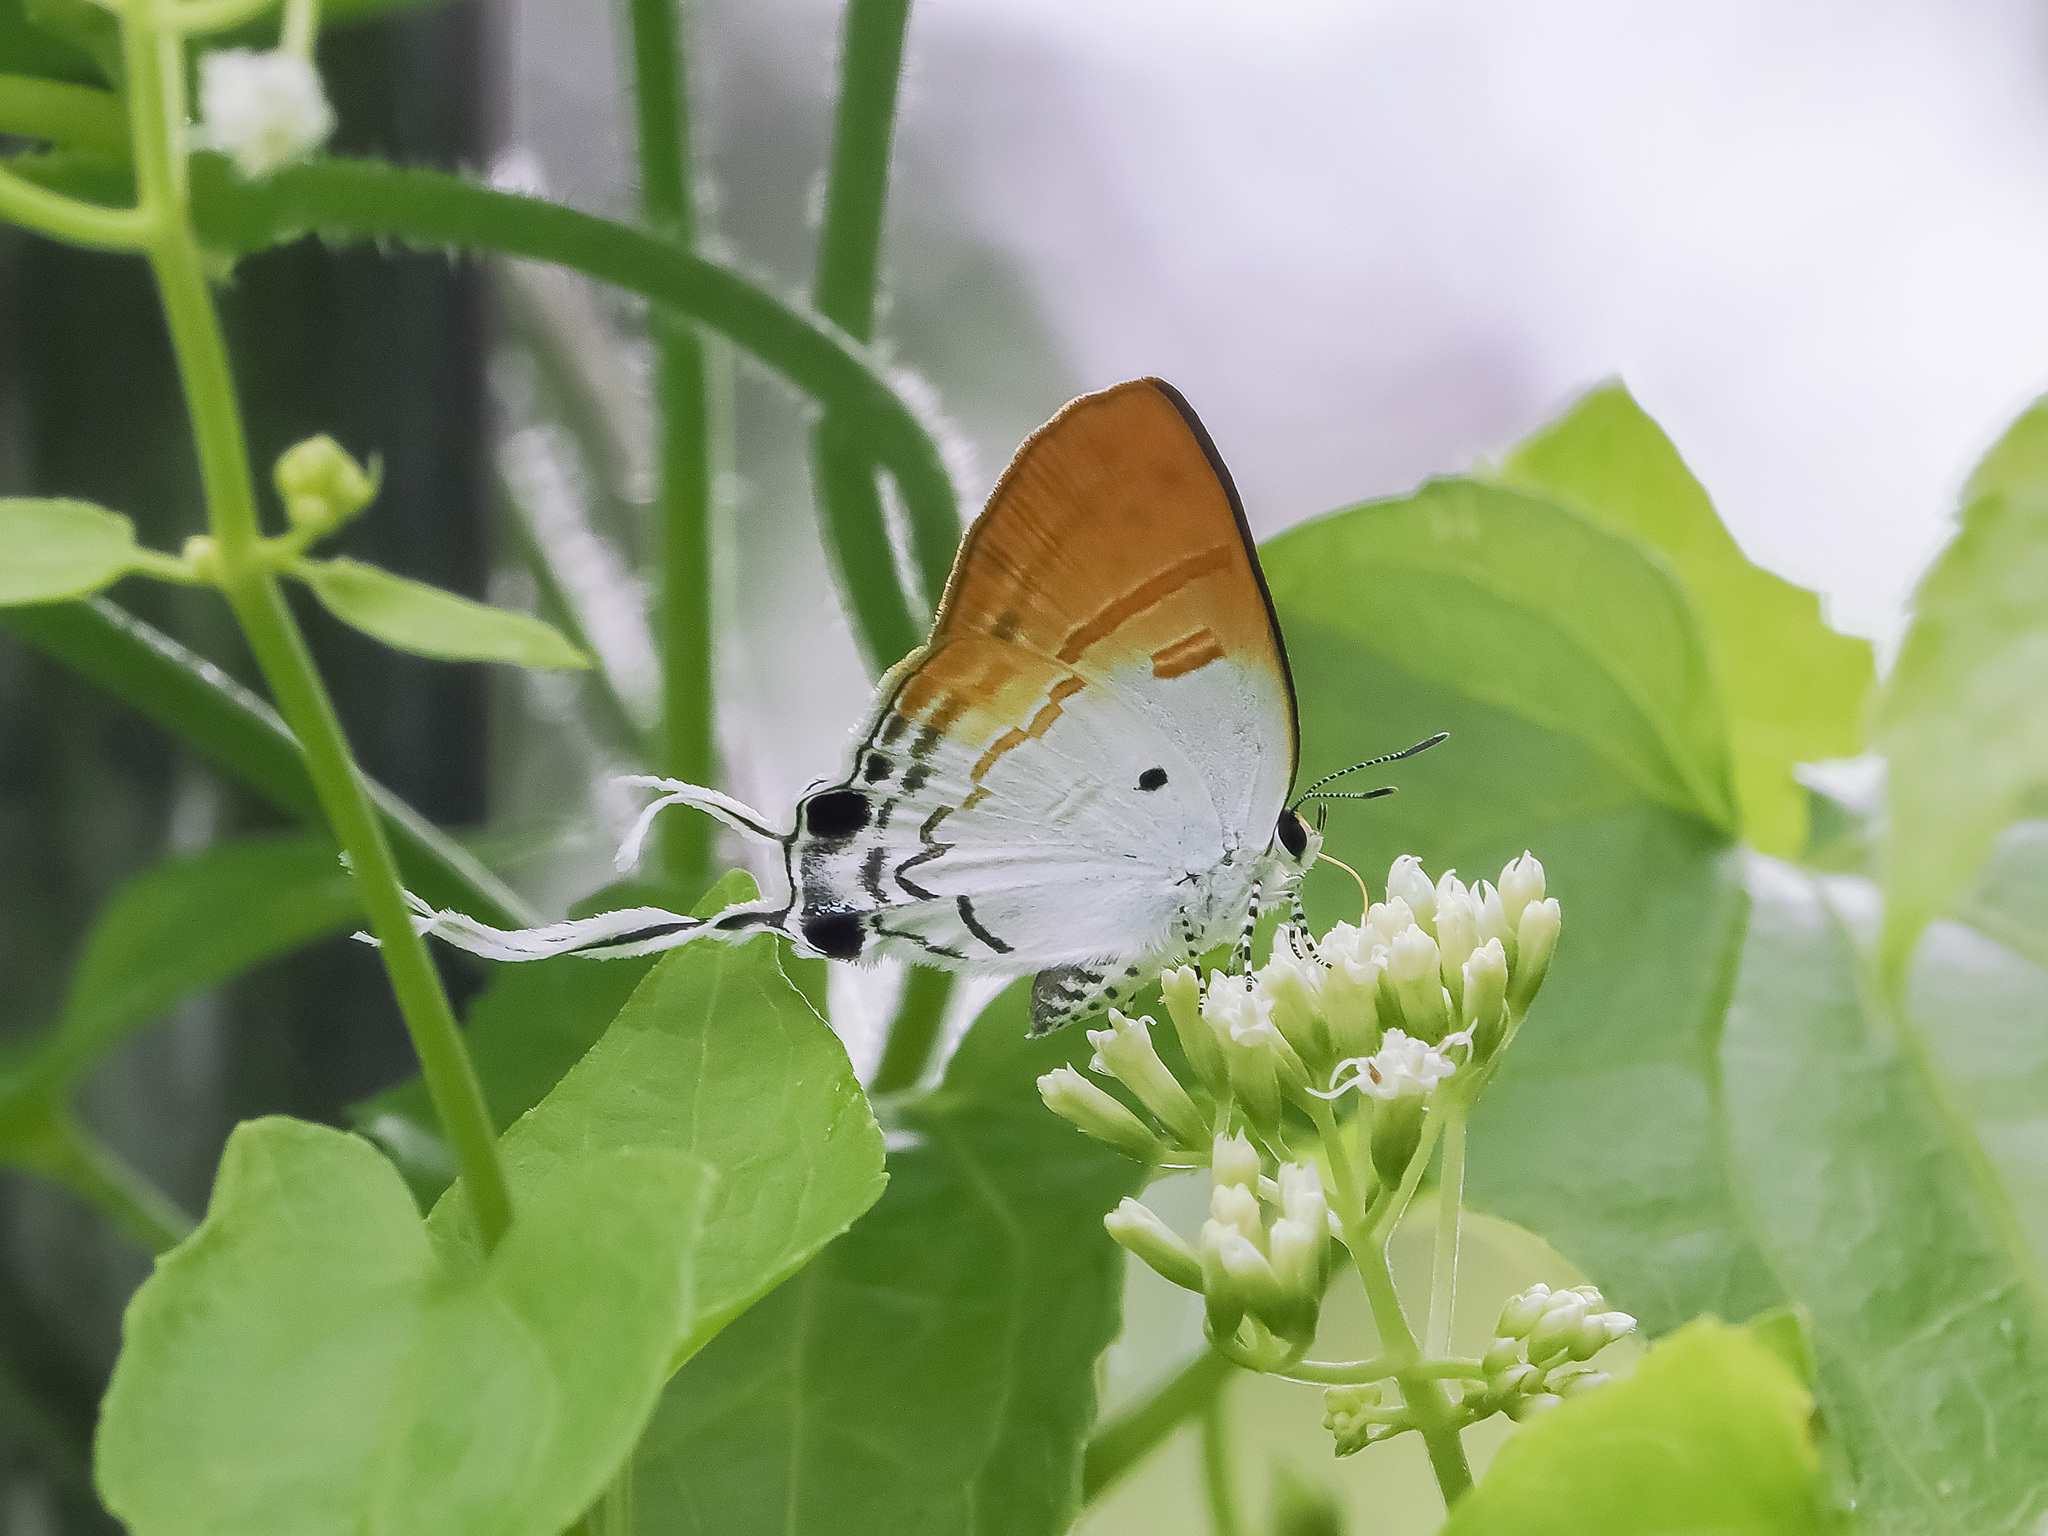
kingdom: Animalia
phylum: Arthropoda
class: Insecta
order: Lepidoptera
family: Lycaenidae
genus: Zeltus
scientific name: Zeltus amasa
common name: Fluffy tit
